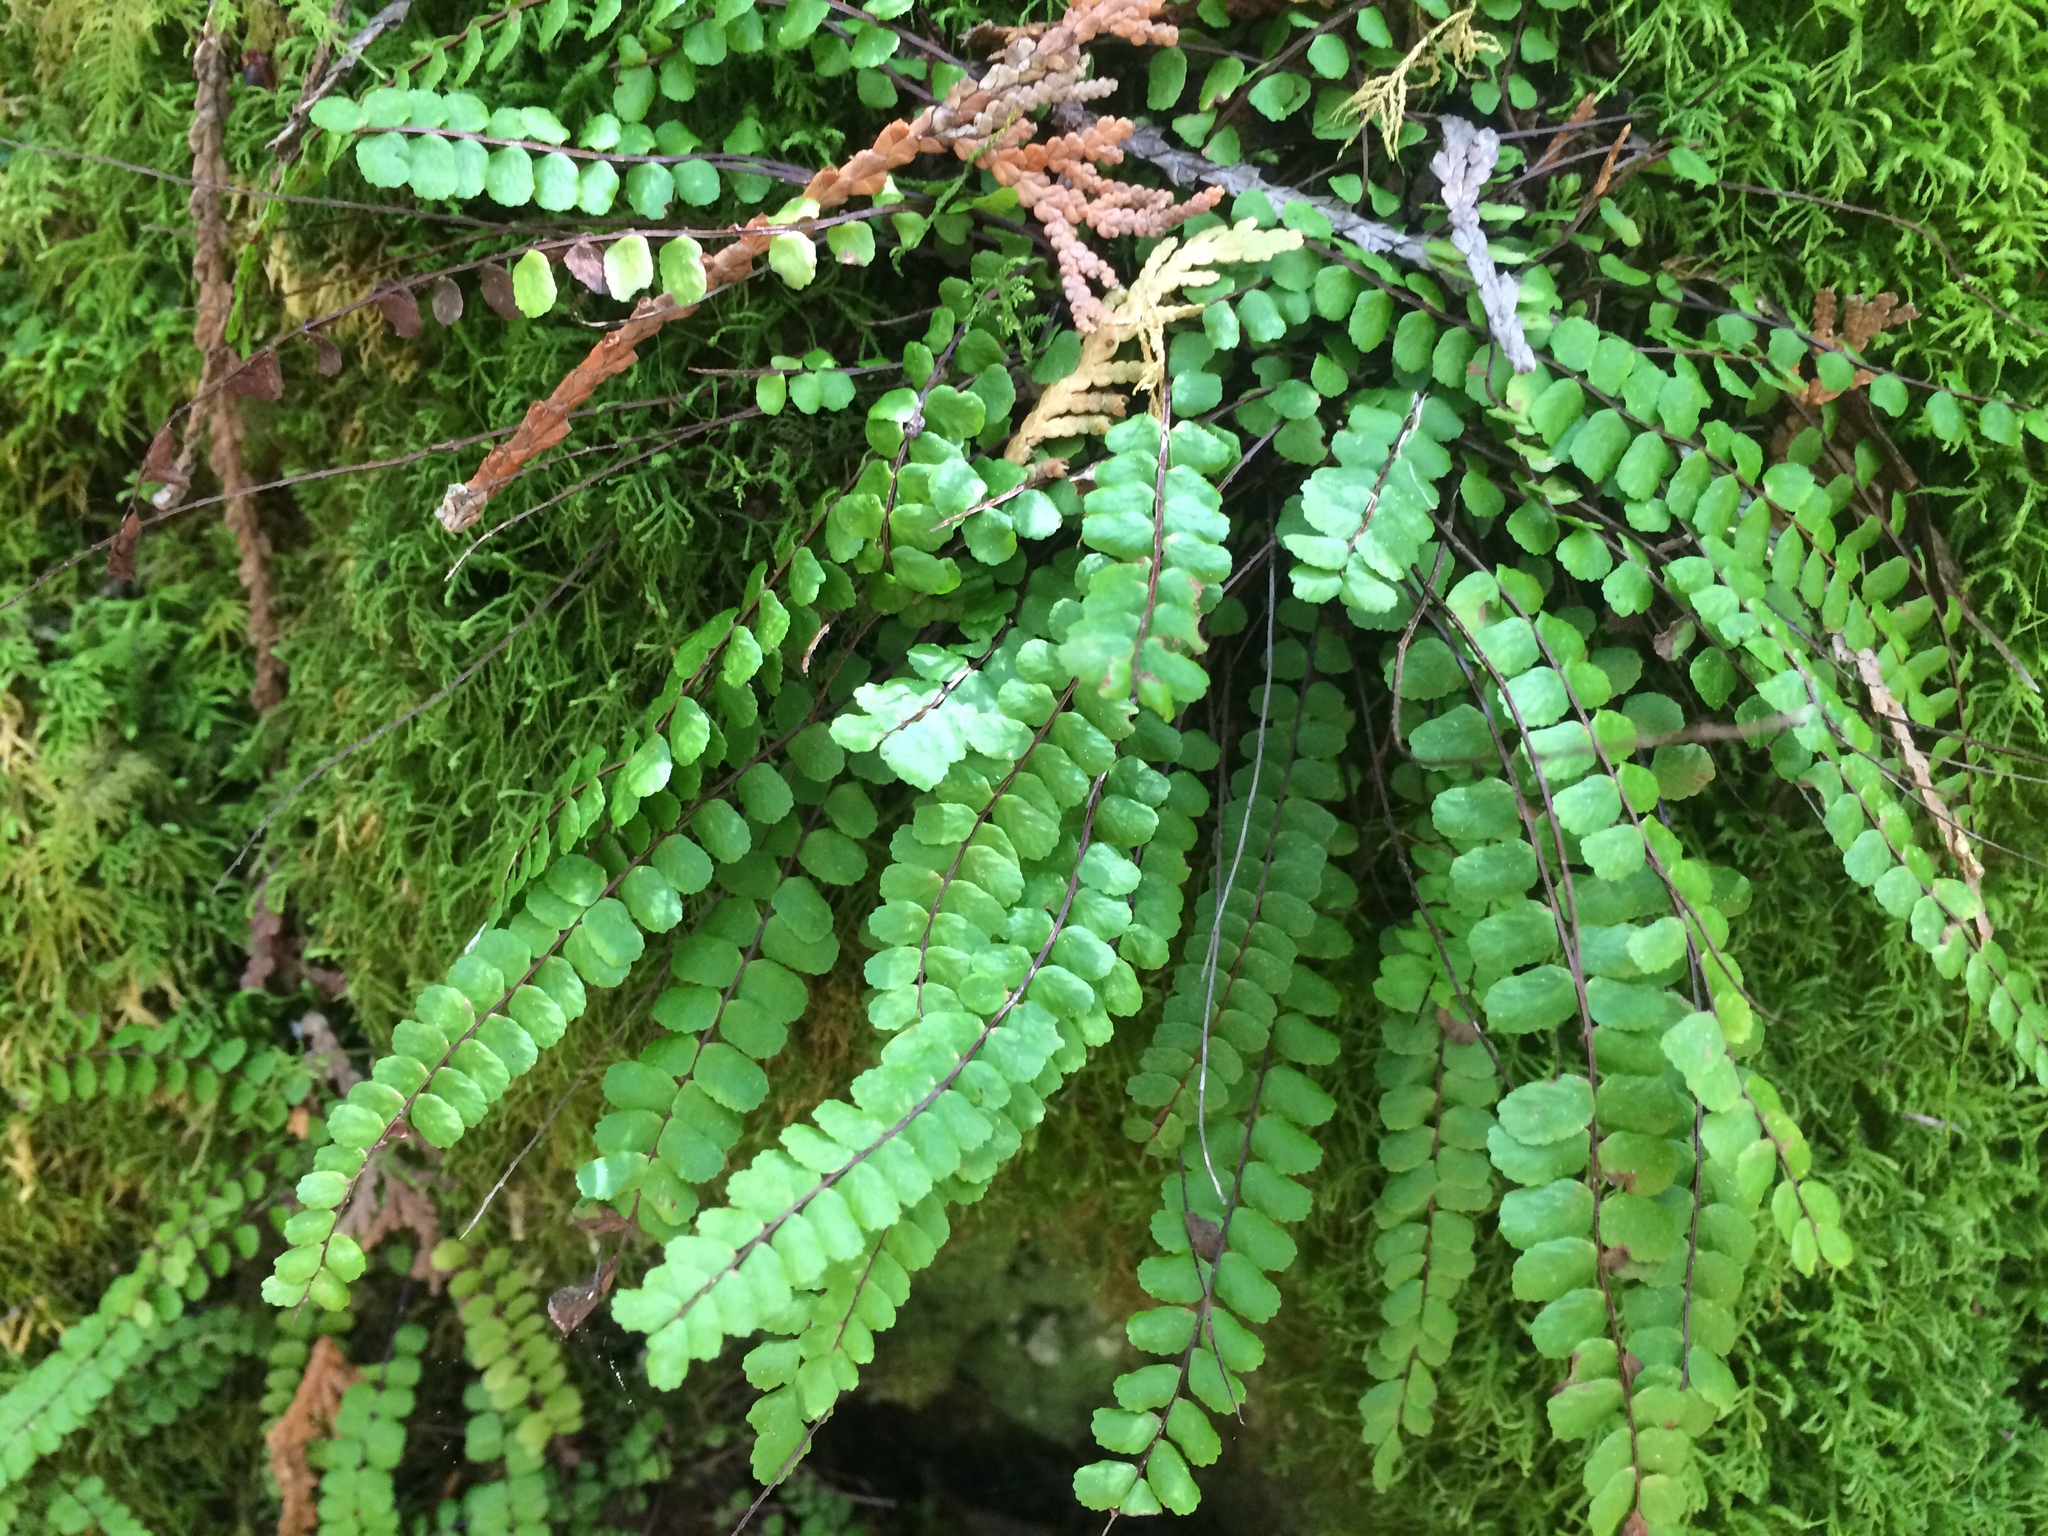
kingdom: Plantae
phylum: Tracheophyta
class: Polypodiopsida
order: Polypodiales
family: Aspleniaceae
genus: Asplenium
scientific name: Asplenium quadrivalens
